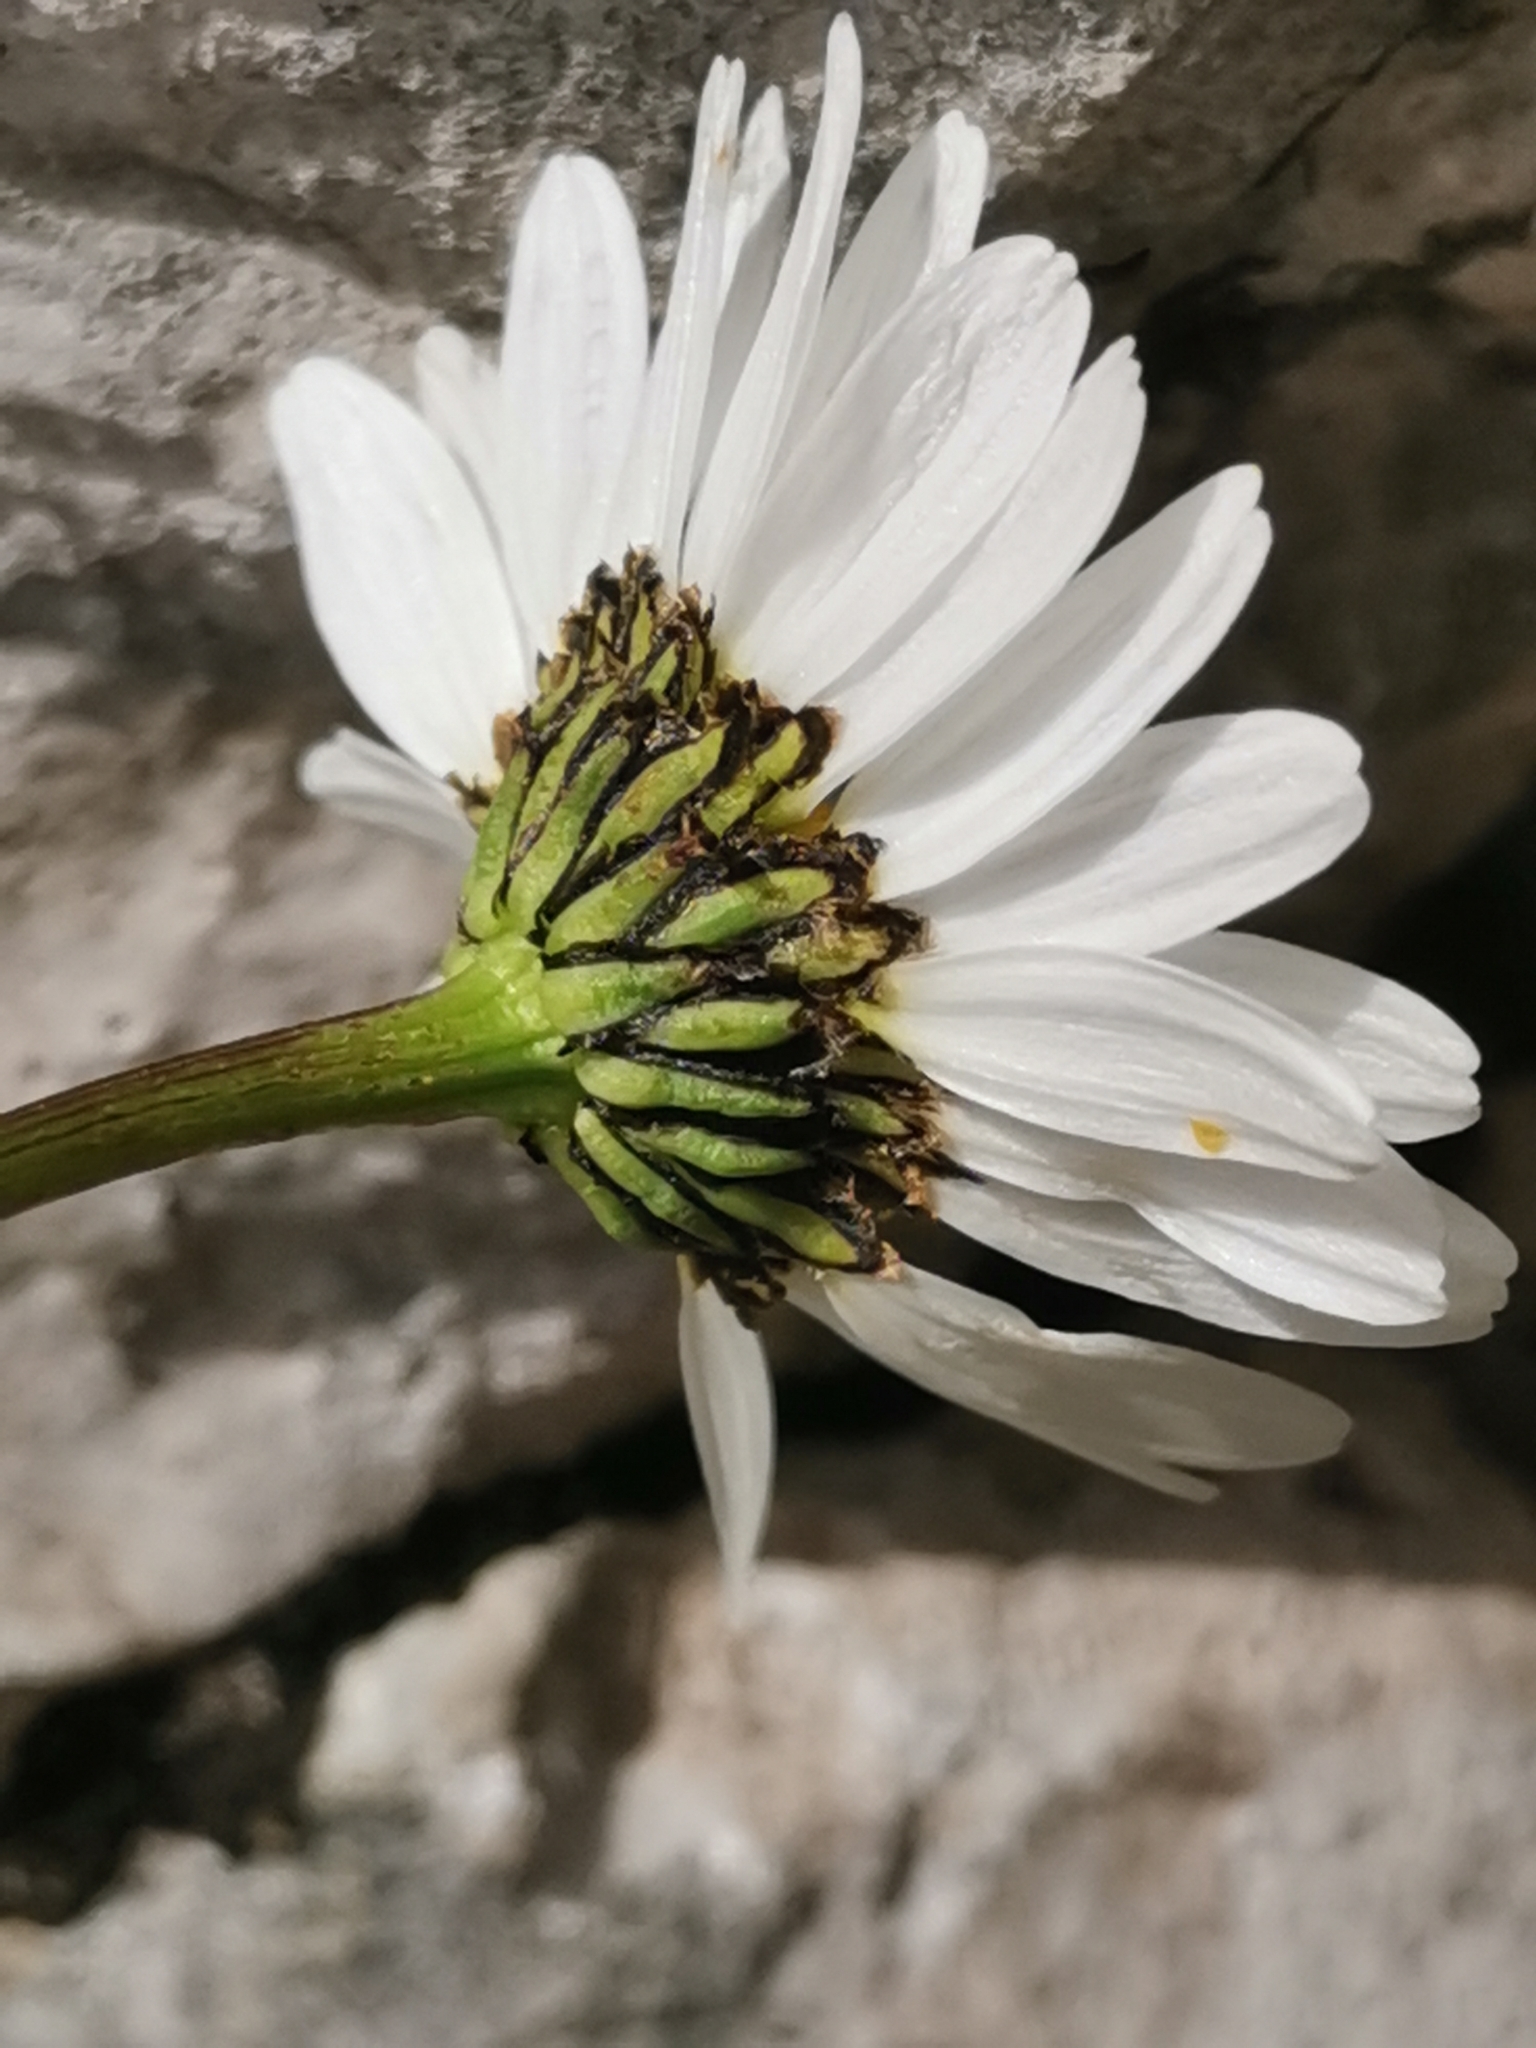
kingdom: Plantae
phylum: Tracheophyta
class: Magnoliopsida
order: Asterales
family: Asteraceae
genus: Leucanthemum
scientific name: Leucanthemum lithopolitanicum
